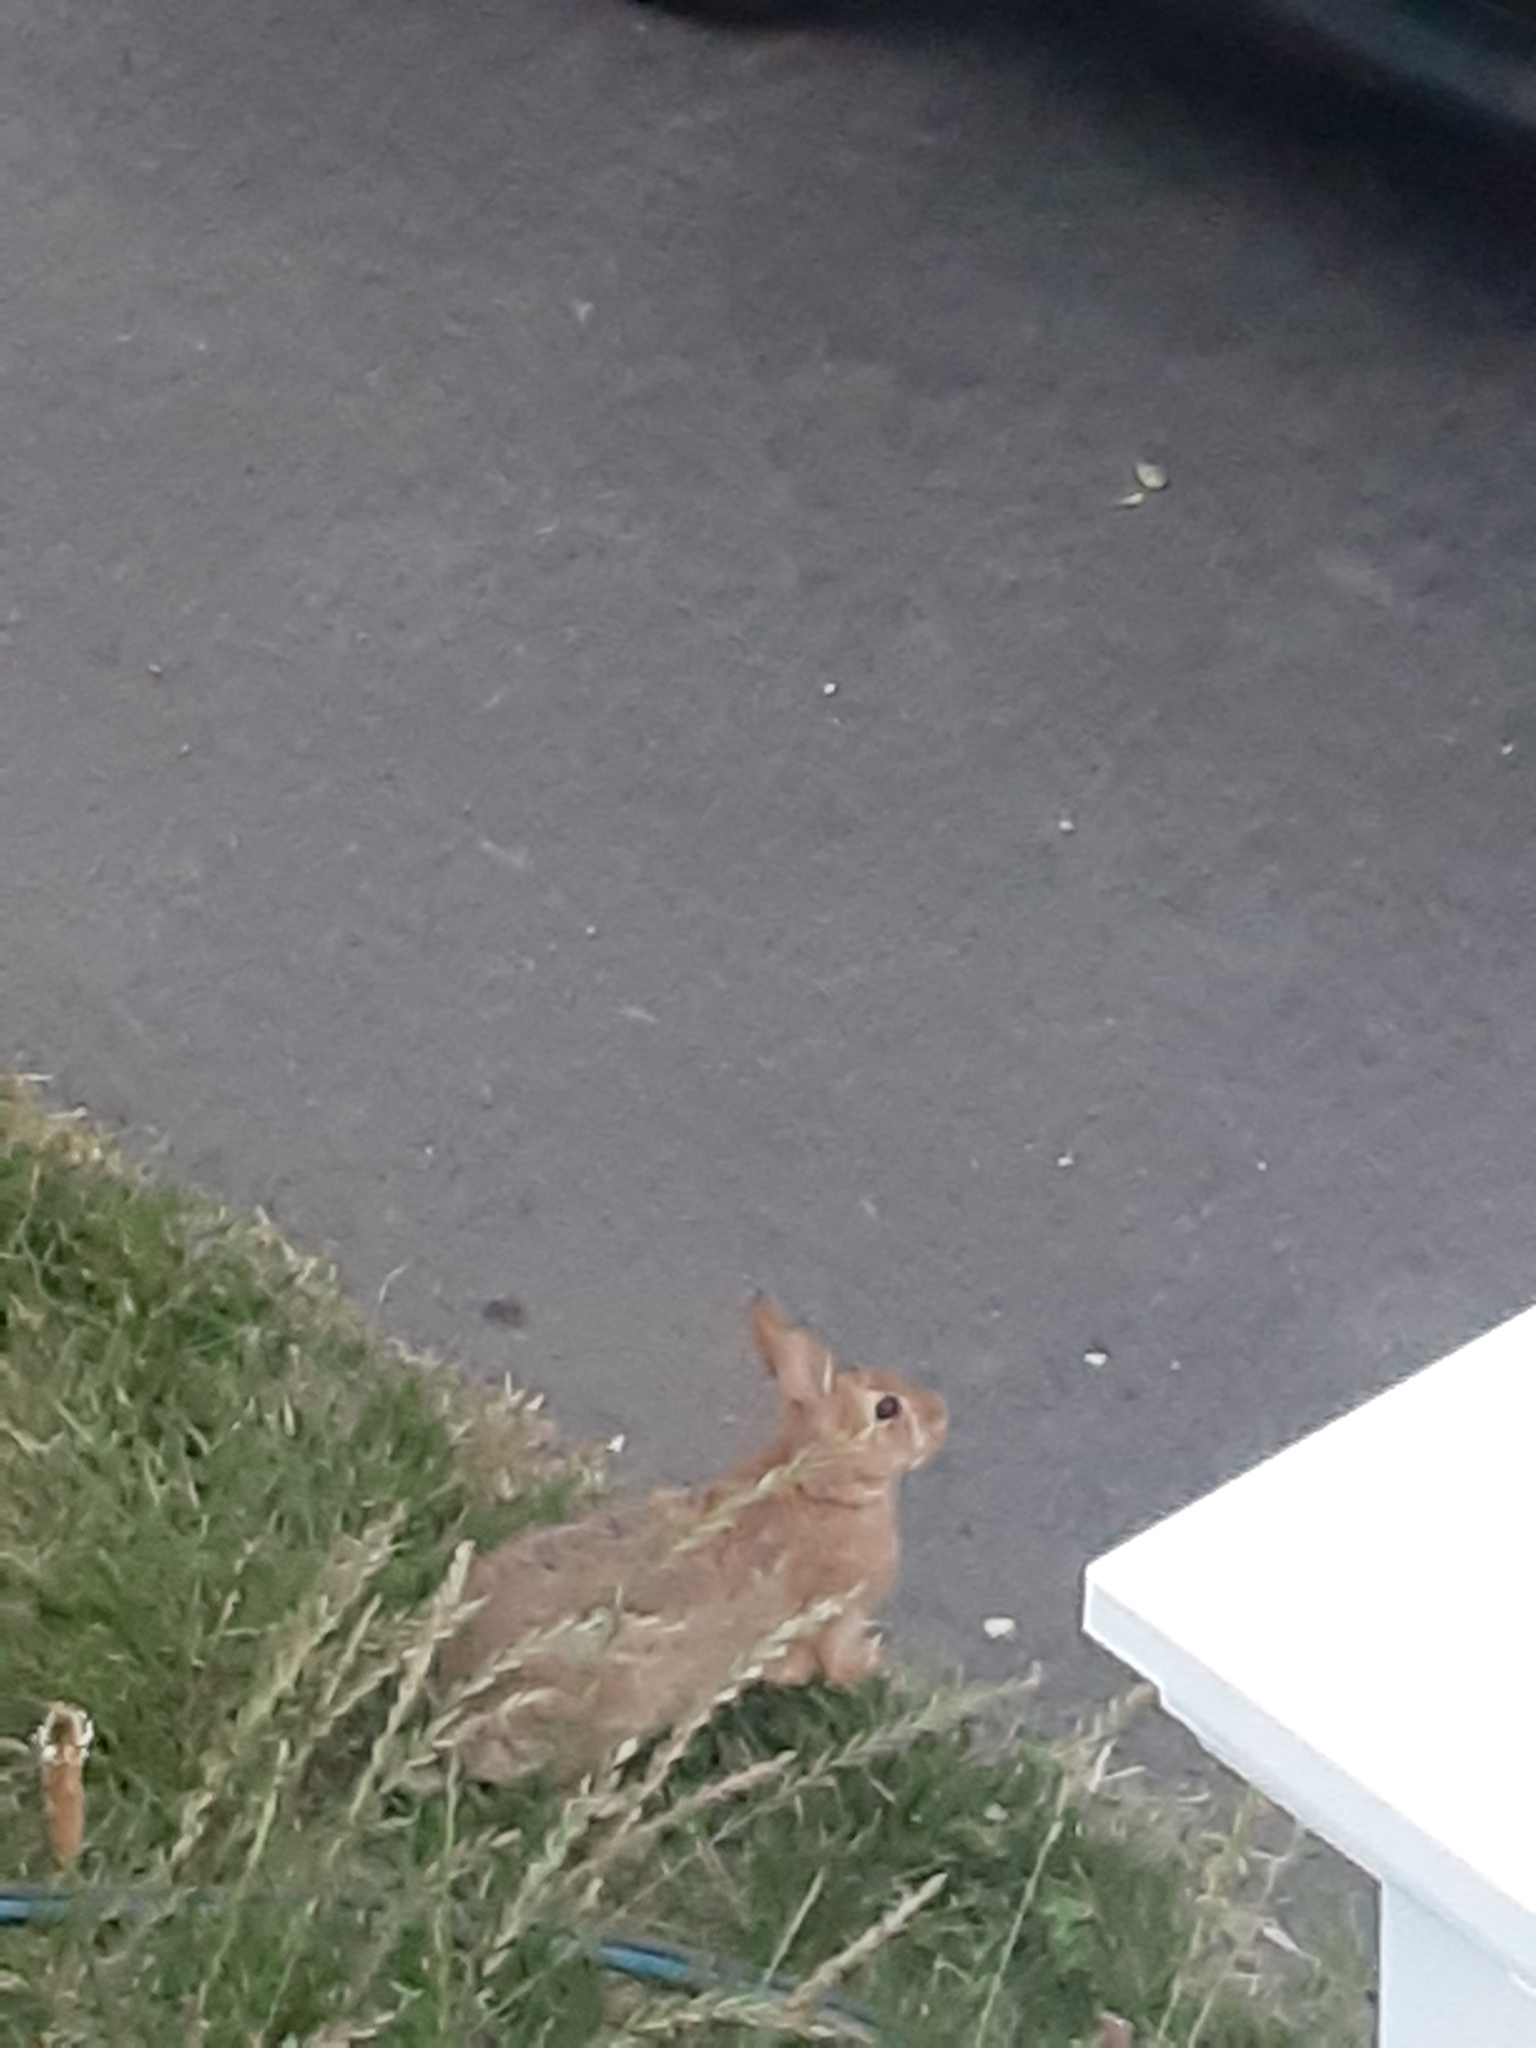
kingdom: Animalia
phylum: Chordata
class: Mammalia
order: Lagomorpha
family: Leporidae
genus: Sylvilagus
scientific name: Sylvilagus floridanus
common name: Eastern cottontail
